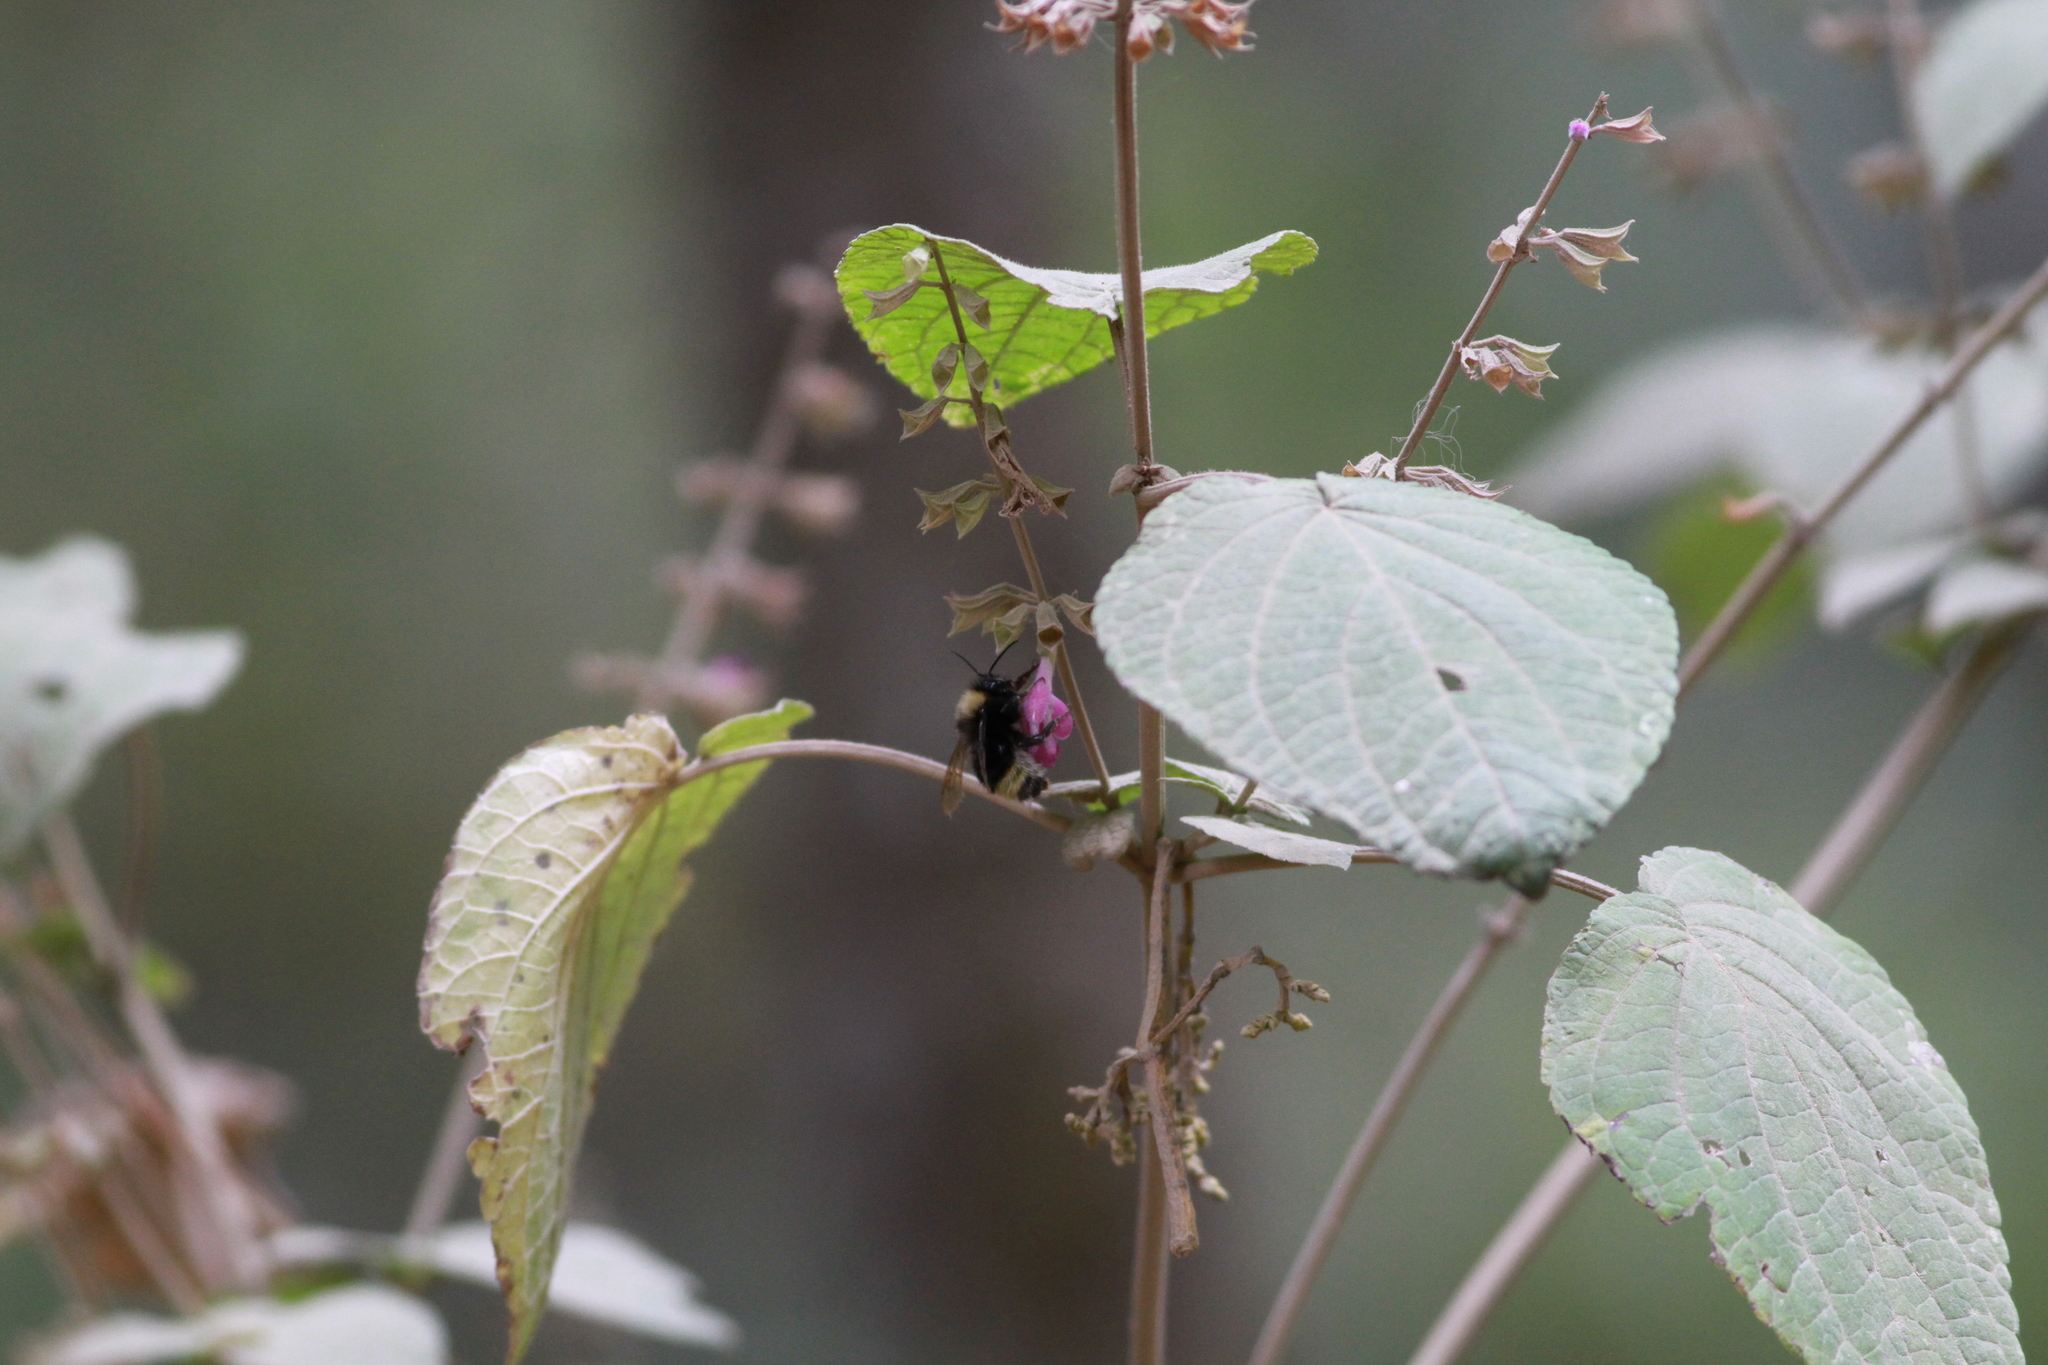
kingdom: Animalia
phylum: Arthropoda
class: Insecta
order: Hymenoptera
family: Apidae
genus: Bombus
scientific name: Bombus trinominatus
